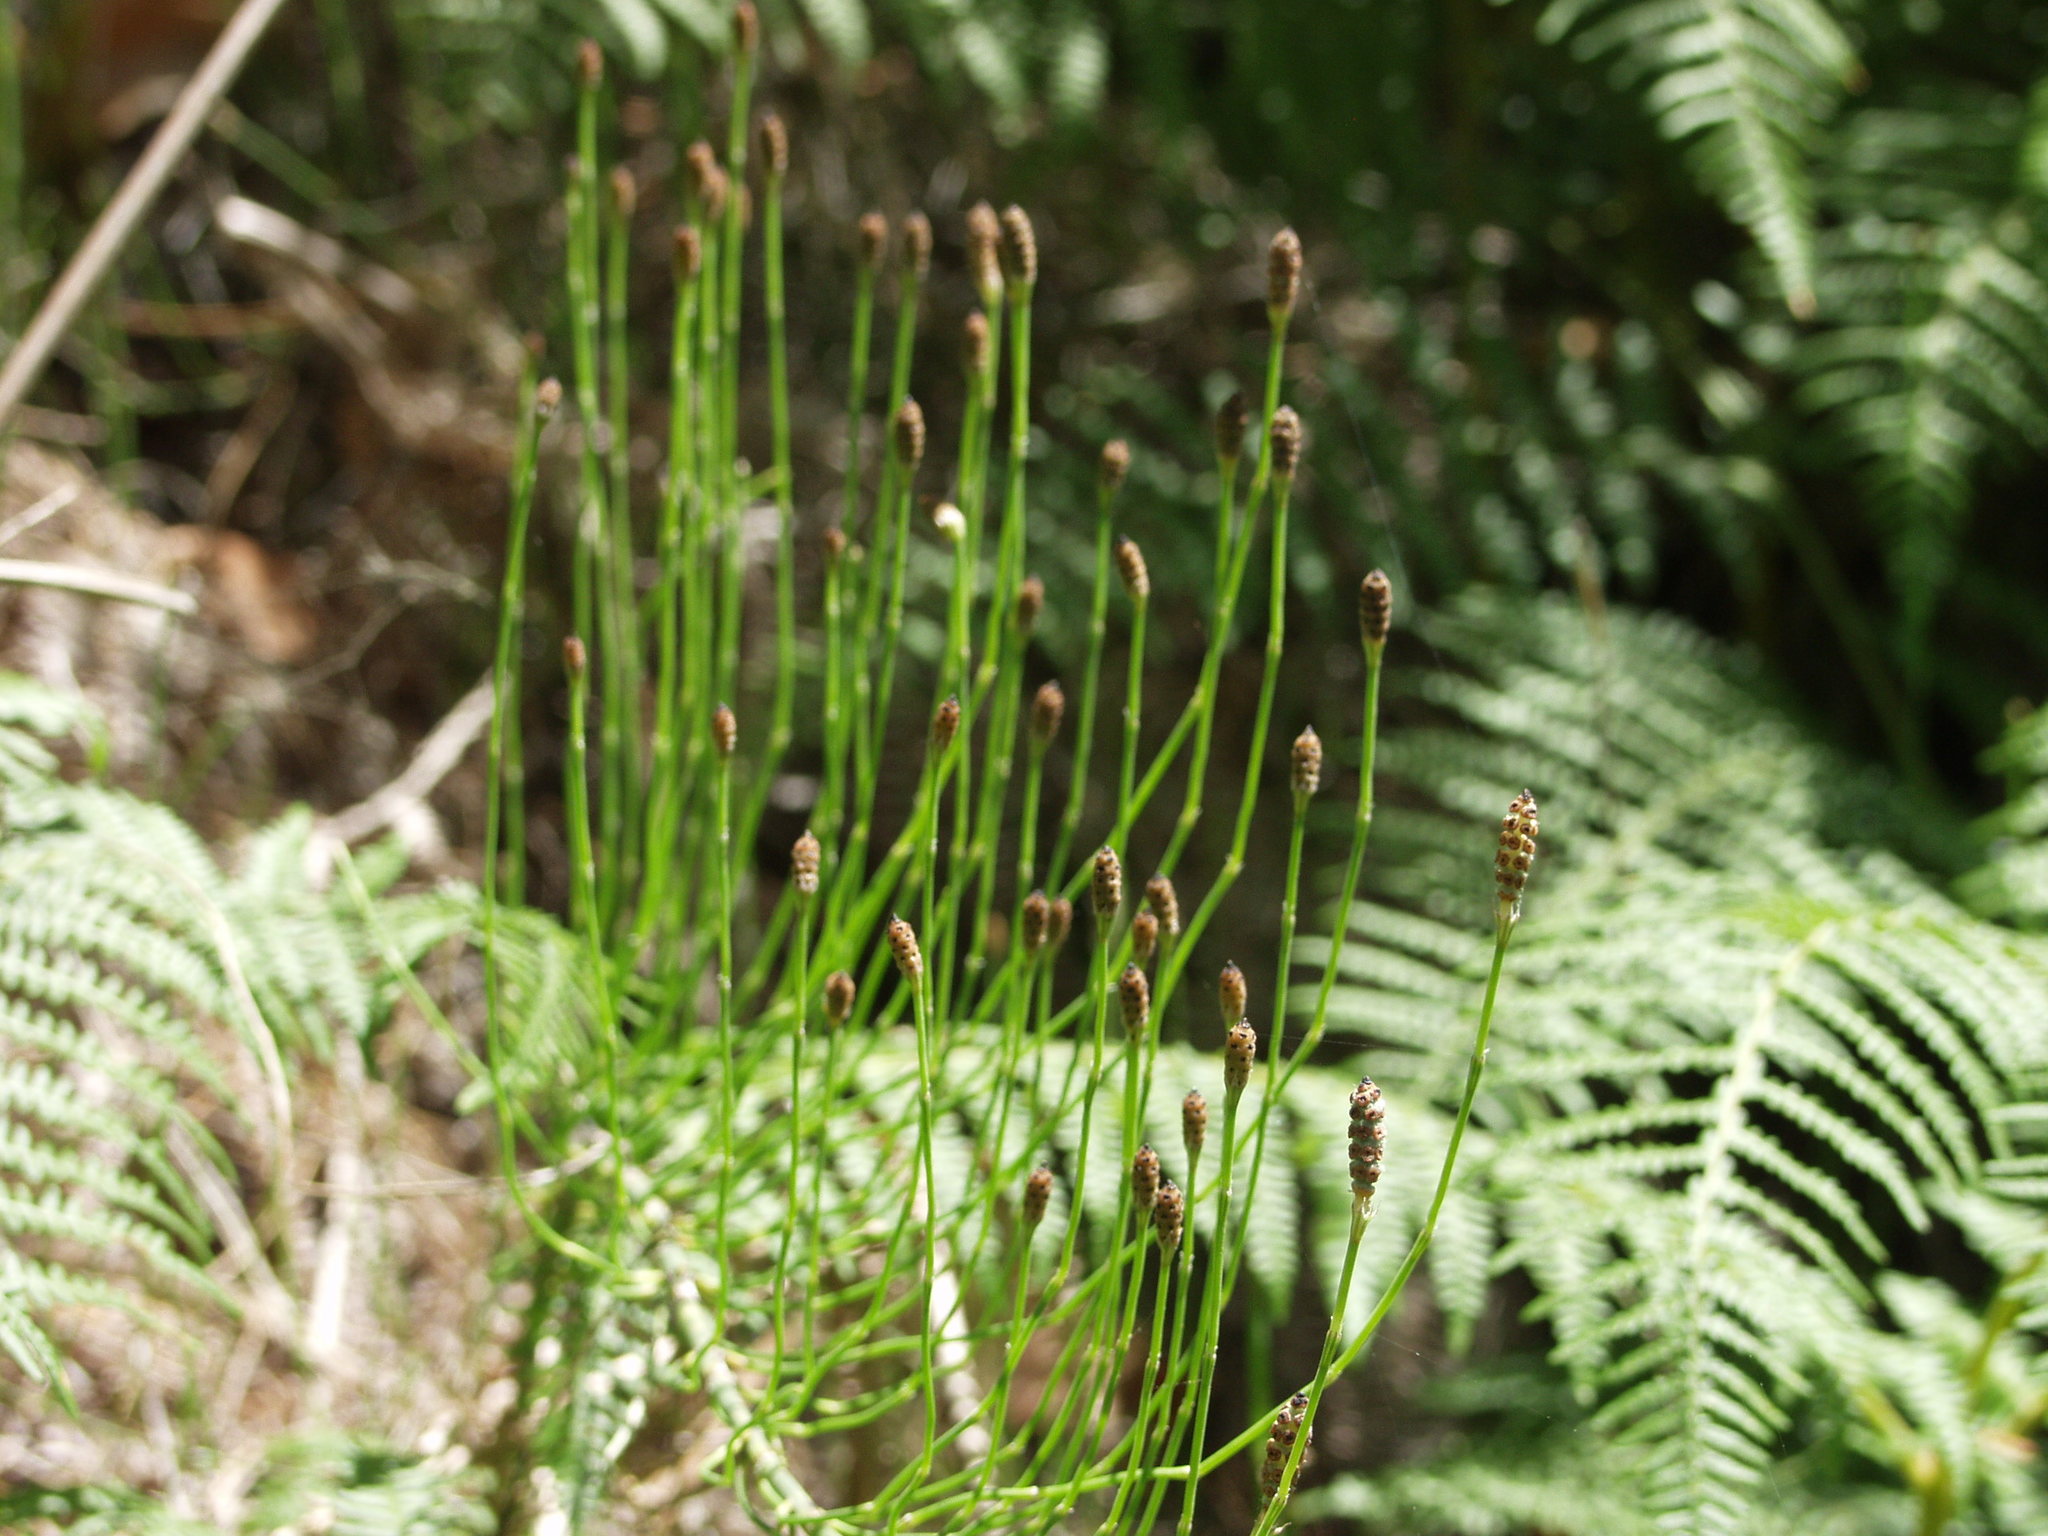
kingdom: Plantae
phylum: Tracheophyta
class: Polypodiopsida
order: Equisetales
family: Equisetaceae
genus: Equisetum
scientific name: Equisetum ramosissimum
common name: Branched horsetail
